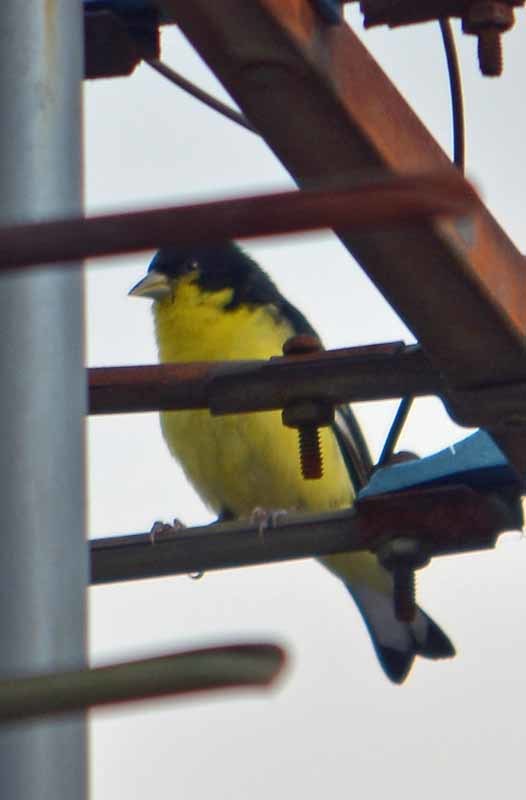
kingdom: Animalia
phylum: Chordata
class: Aves
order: Passeriformes
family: Fringillidae
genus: Spinus
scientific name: Spinus psaltria
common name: Lesser goldfinch
